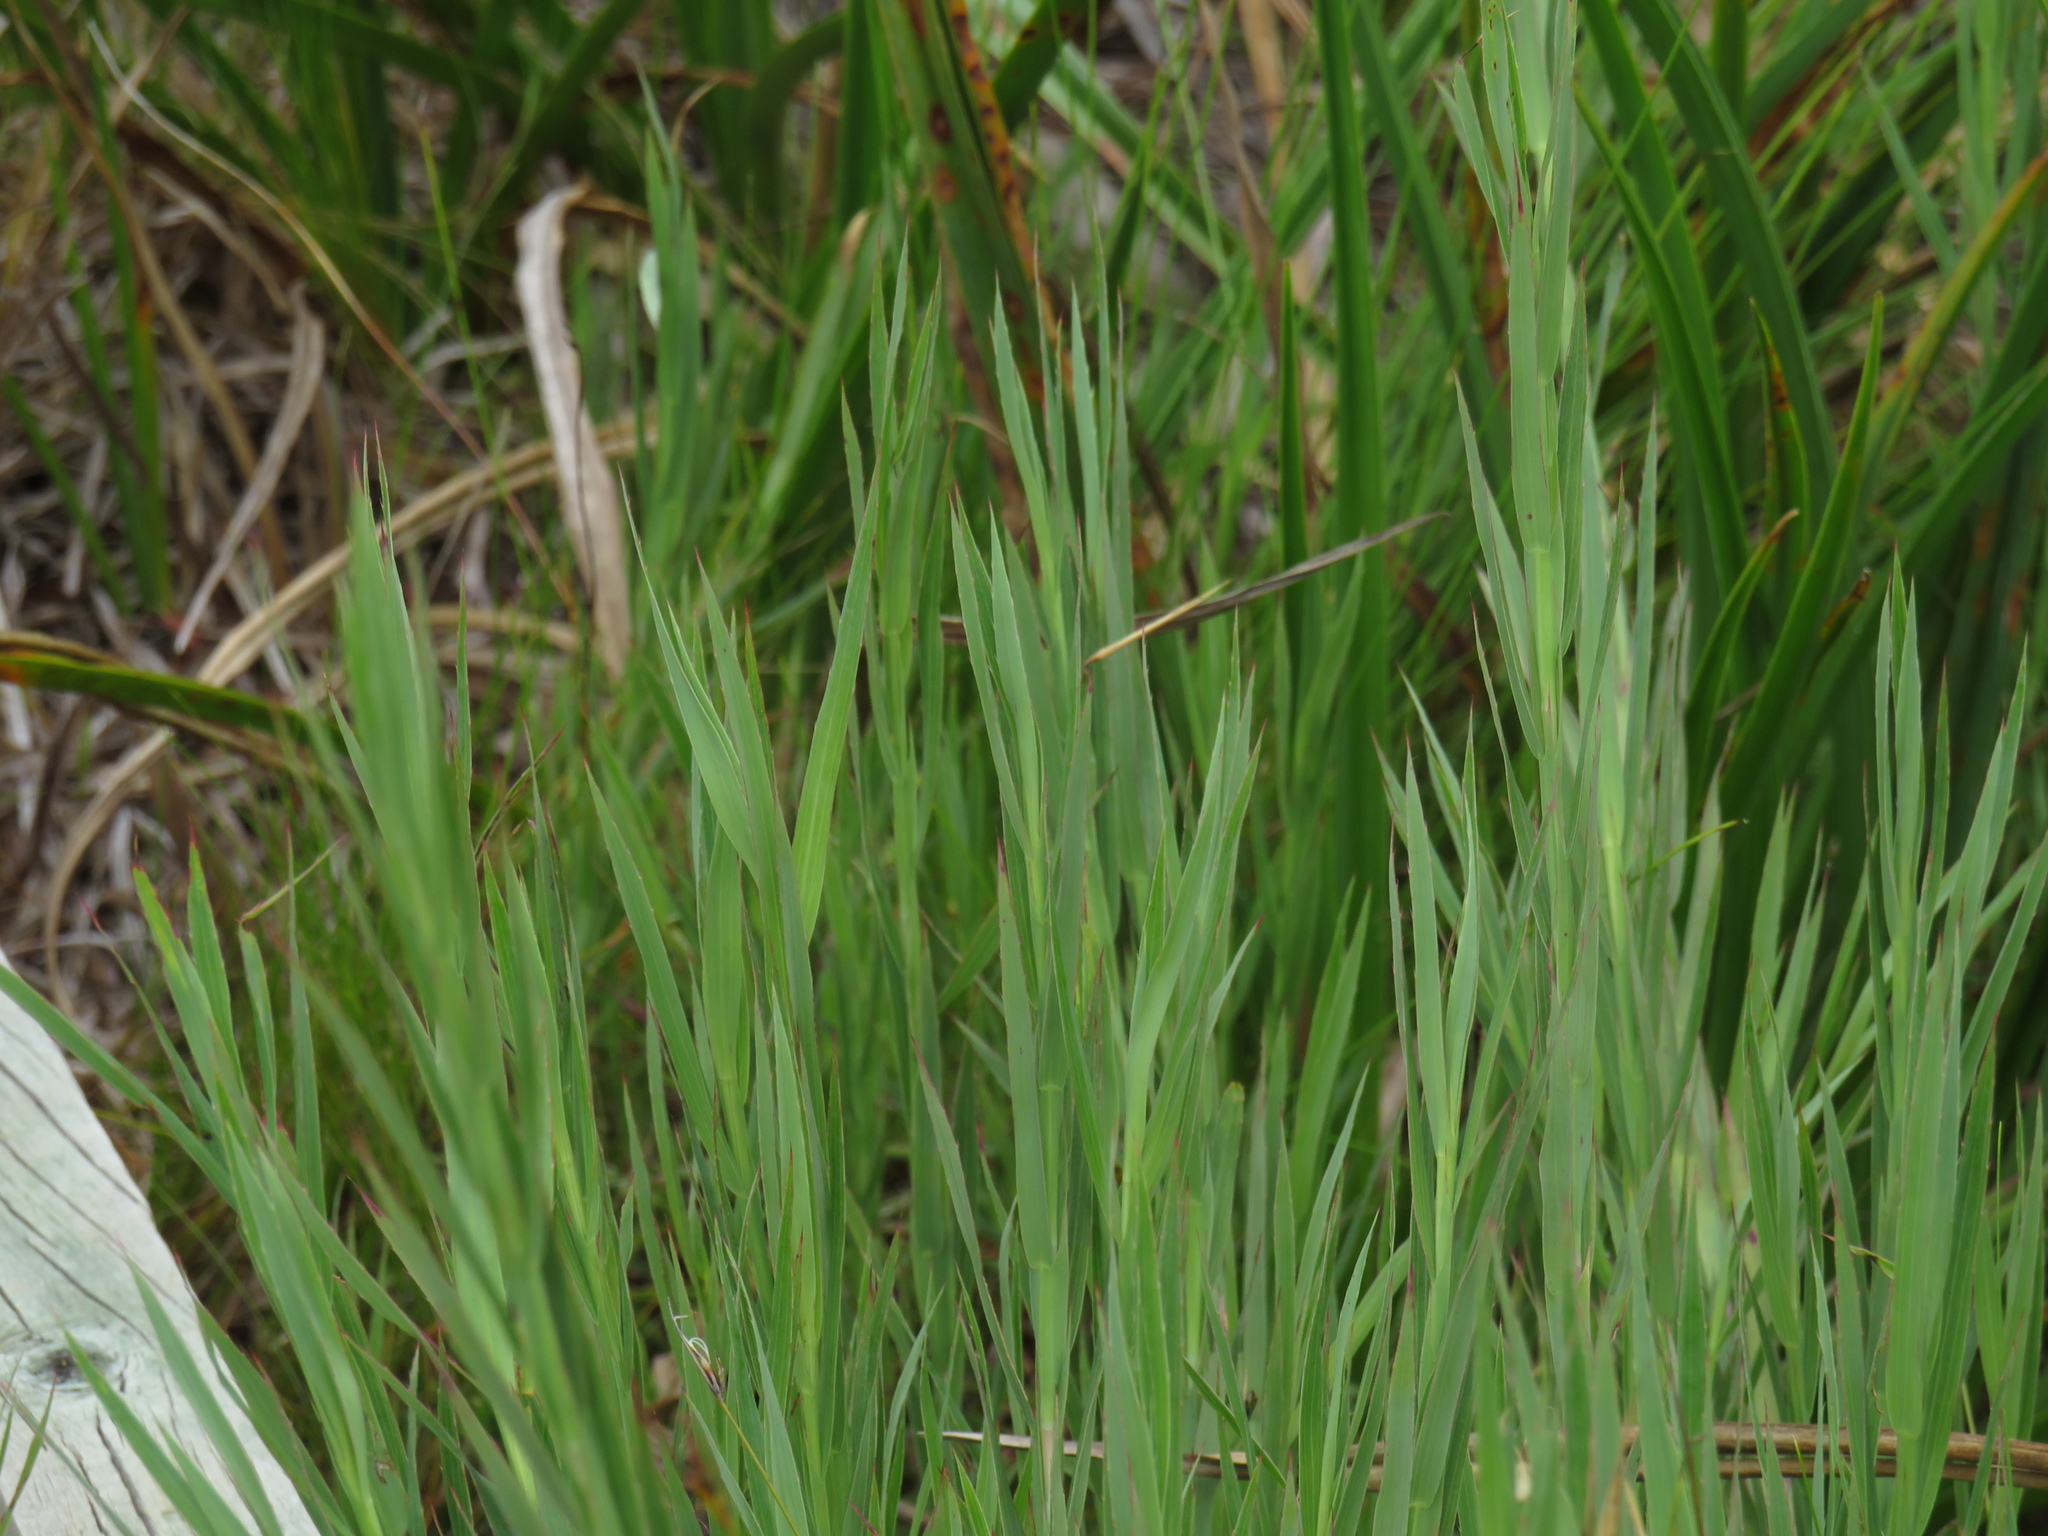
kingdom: Plantae
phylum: Tracheophyta
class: Magnoliopsida
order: Rosales
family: Rosaceae
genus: Cliffortia
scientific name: Cliffortia graminea
